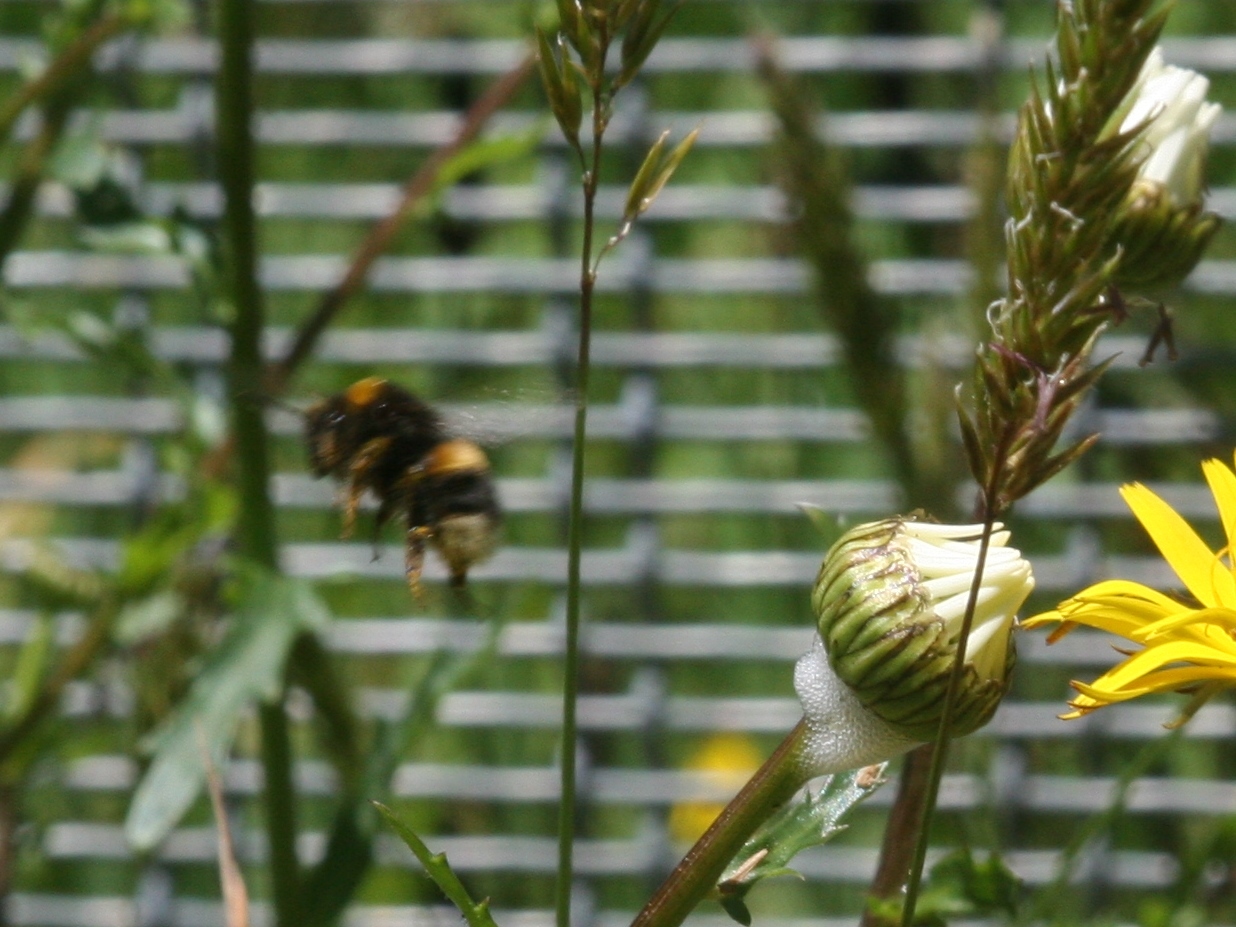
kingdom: Animalia
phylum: Arthropoda
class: Insecta
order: Hymenoptera
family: Apidae
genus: Bombus
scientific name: Bombus terrestris
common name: Buff-tailed bumblebee
